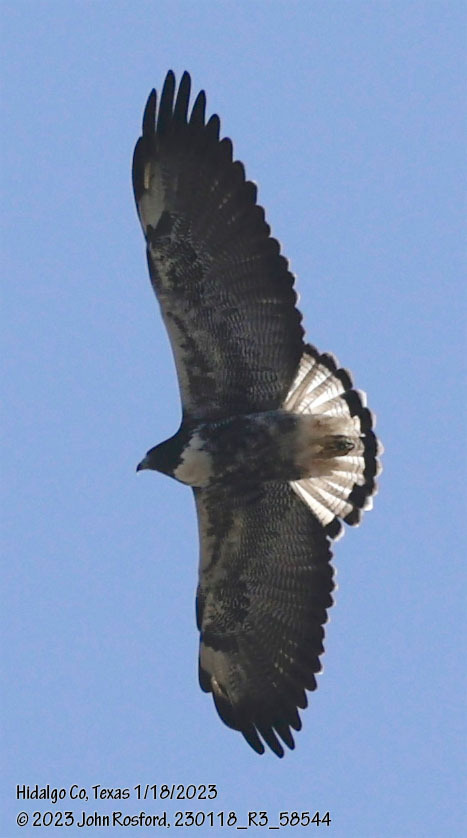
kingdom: Animalia
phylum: Chordata
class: Aves
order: Accipitriformes
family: Accipitridae
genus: Buteo
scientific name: Buteo albicaudatus
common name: White-tailed hawk
